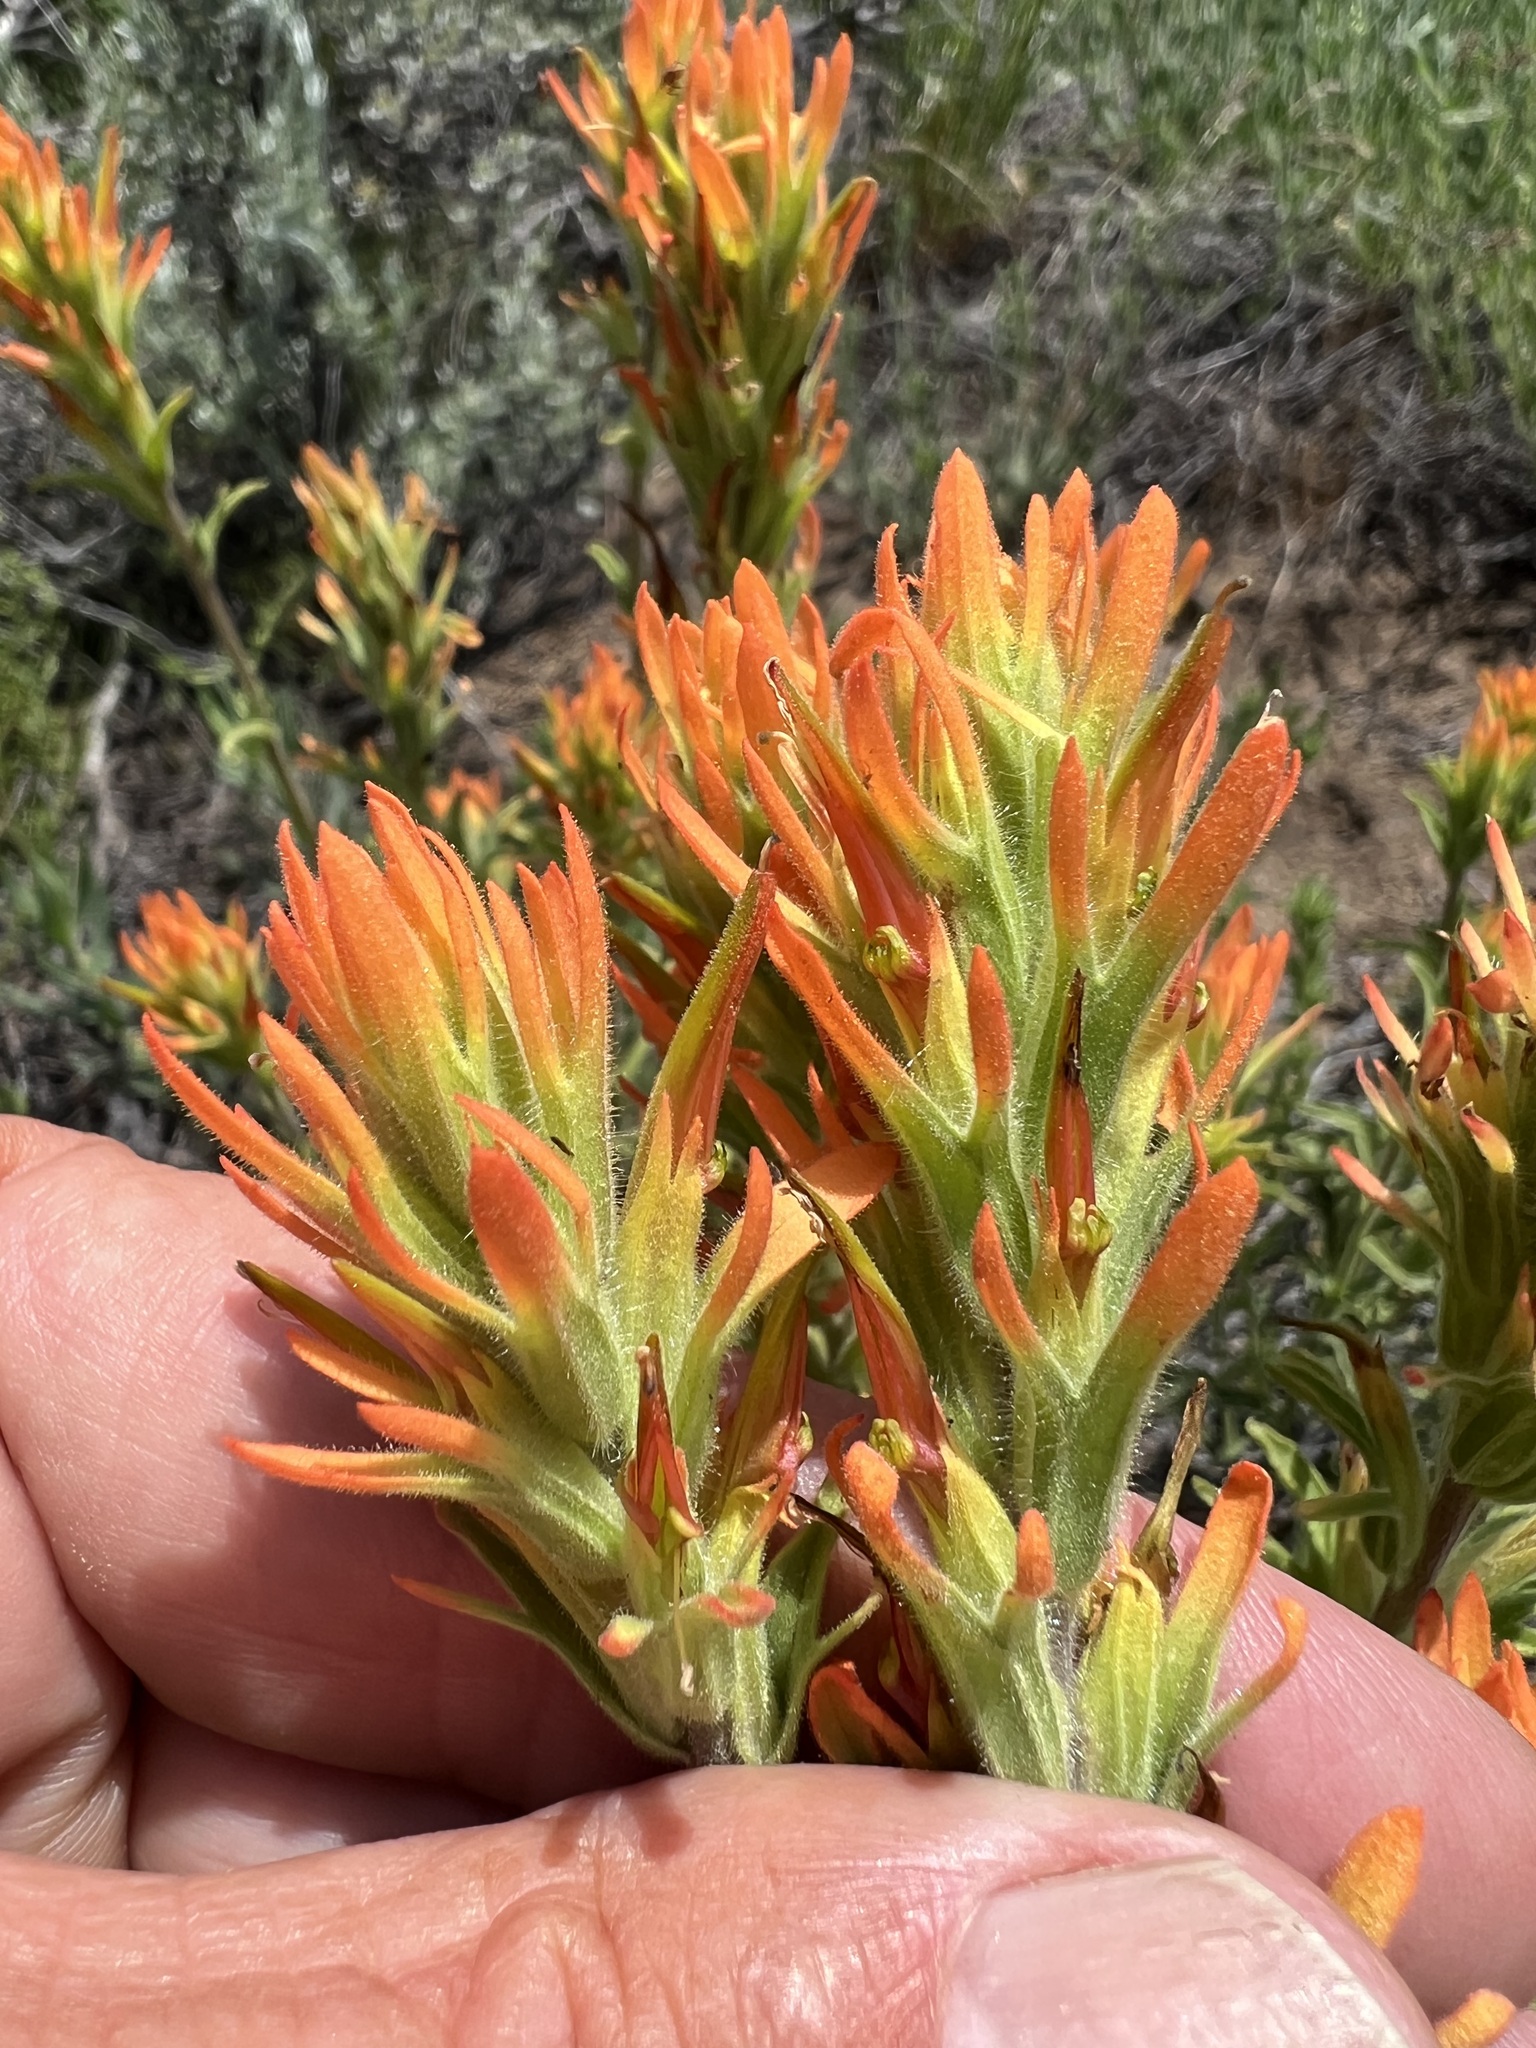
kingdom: Plantae
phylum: Tracheophyta
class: Magnoliopsida
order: Lamiales
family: Orobanchaceae
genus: Castilleja
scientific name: Castilleja applegatei
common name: Wavy-leaf paintbrush
